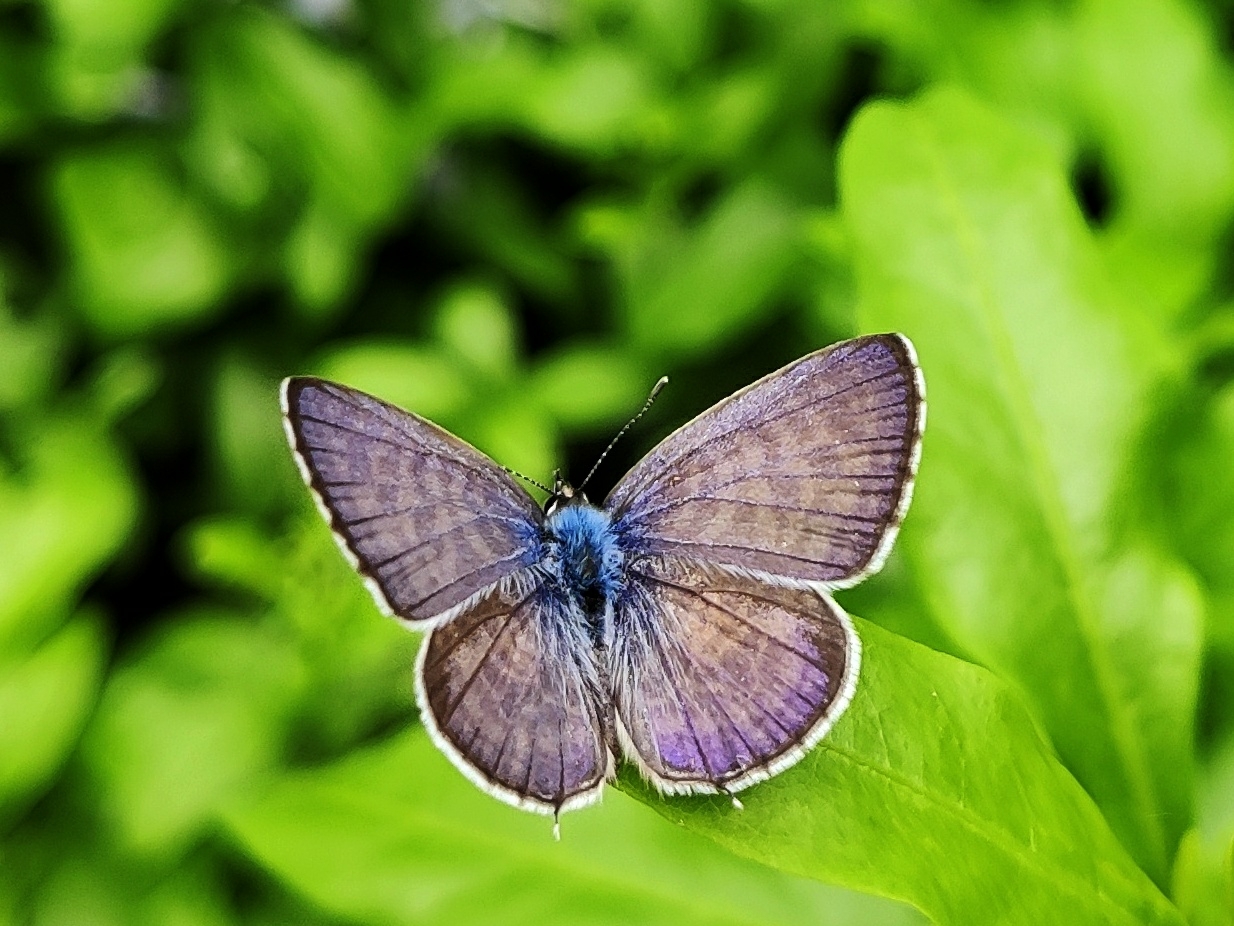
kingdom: Animalia
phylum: Arthropoda
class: Insecta
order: Lepidoptera
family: Lycaenidae
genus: Leptotes
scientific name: Leptotes plinius
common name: Zebra blue
